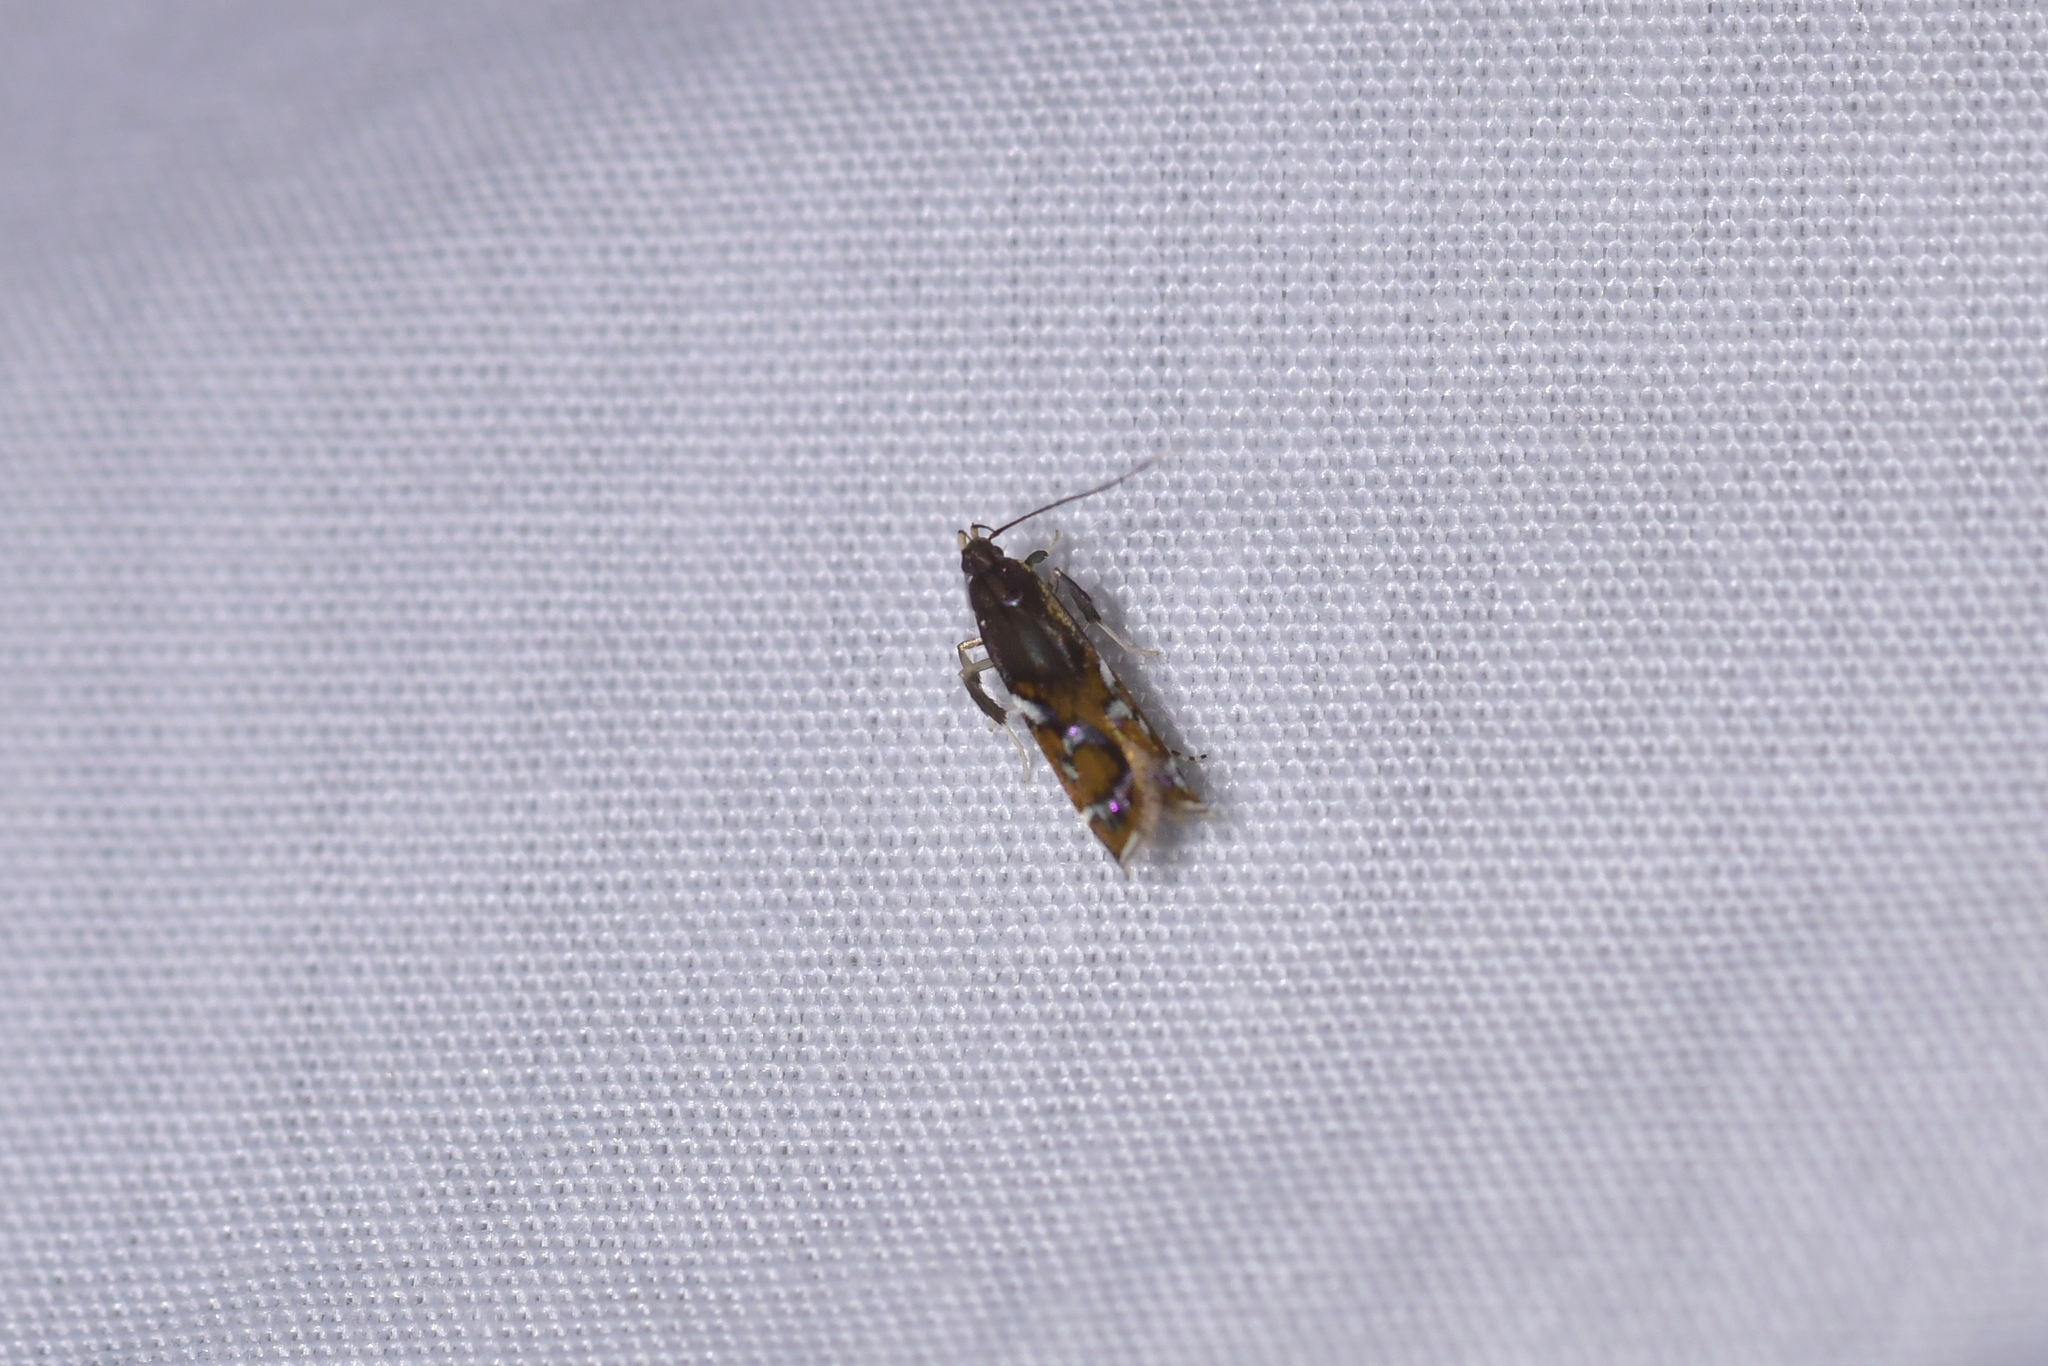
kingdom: Animalia
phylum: Arthropoda
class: Insecta
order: Lepidoptera
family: Depressariidae
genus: Compsistis
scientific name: Compsistis bifaciella
